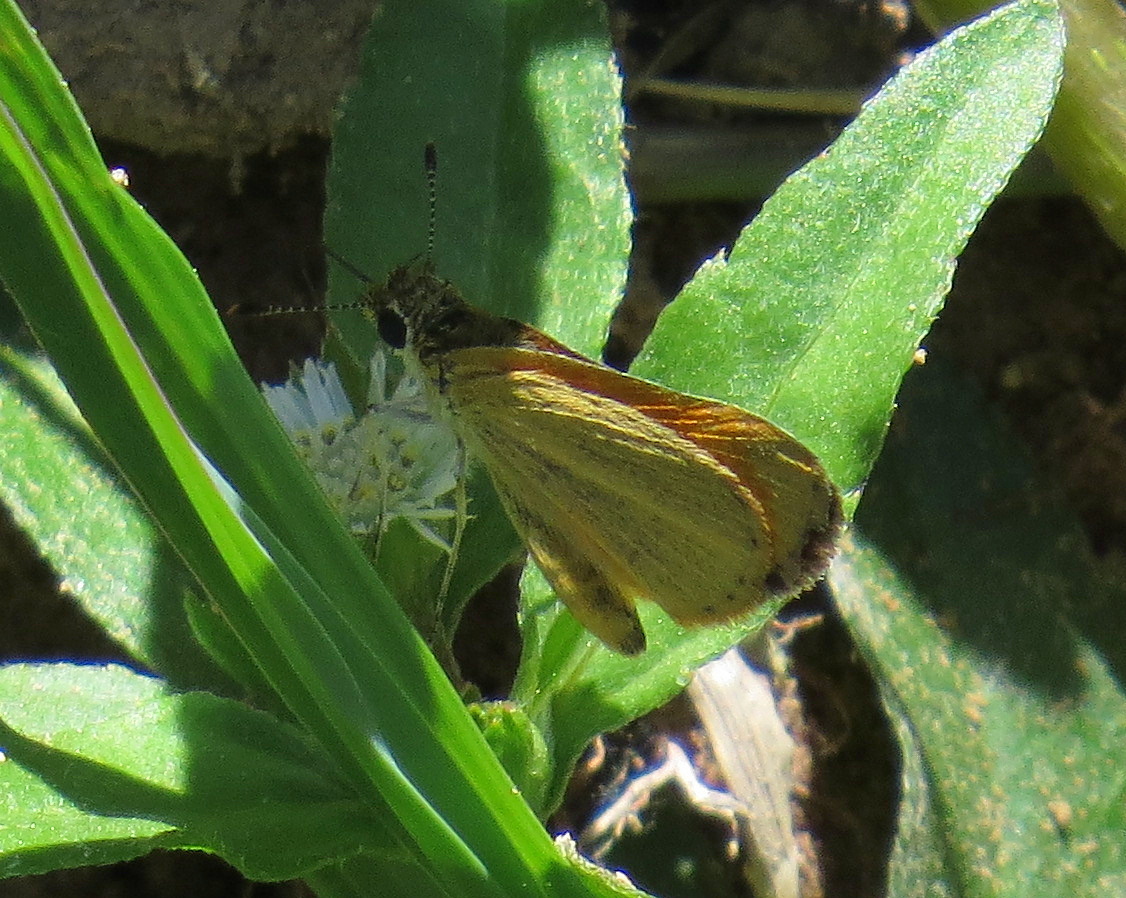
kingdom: Animalia
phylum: Arthropoda
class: Insecta
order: Lepidoptera
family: Hesperiidae
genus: Ancyloxypha
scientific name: Ancyloxypha arene
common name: Tropical least skipper
